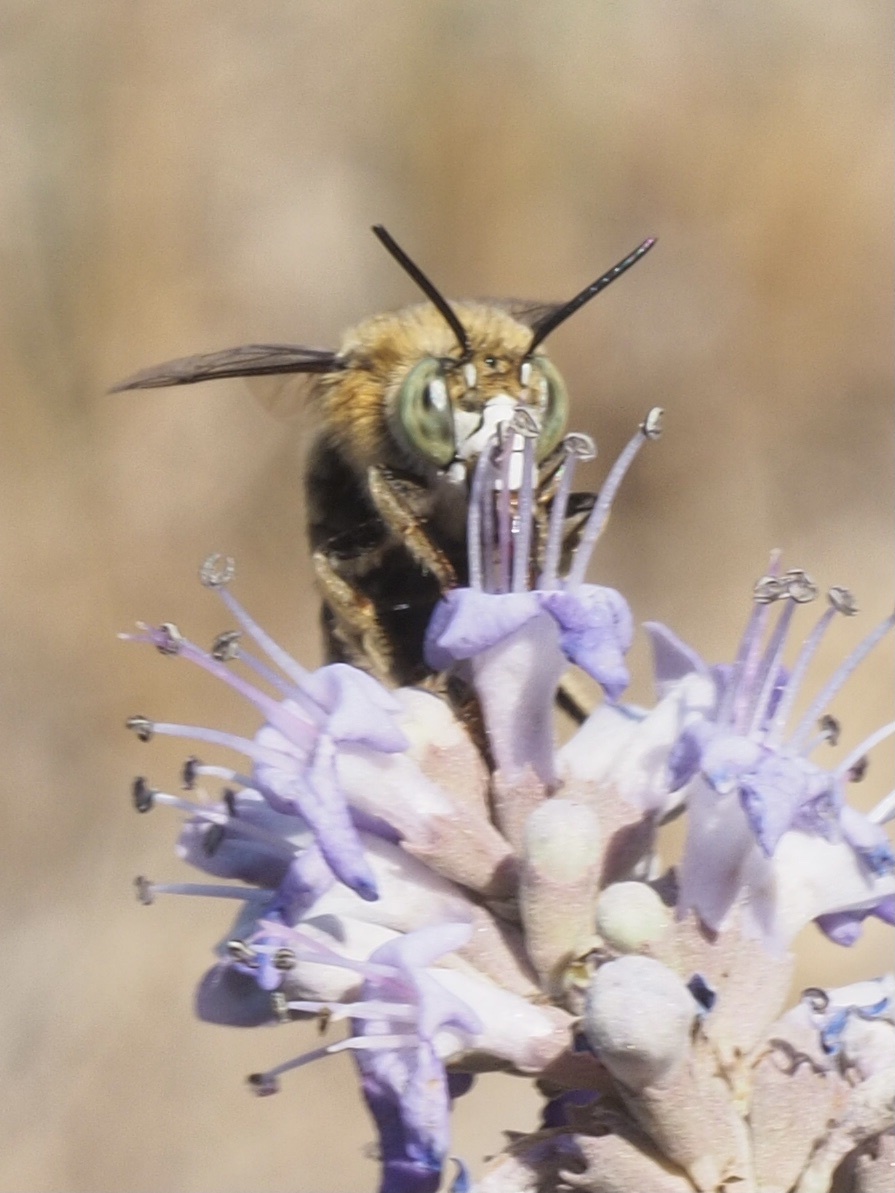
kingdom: Animalia
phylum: Arthropoda
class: Insecta
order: Hymenoptera
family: Apidae
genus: Amegilla
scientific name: Amegilla garrula
